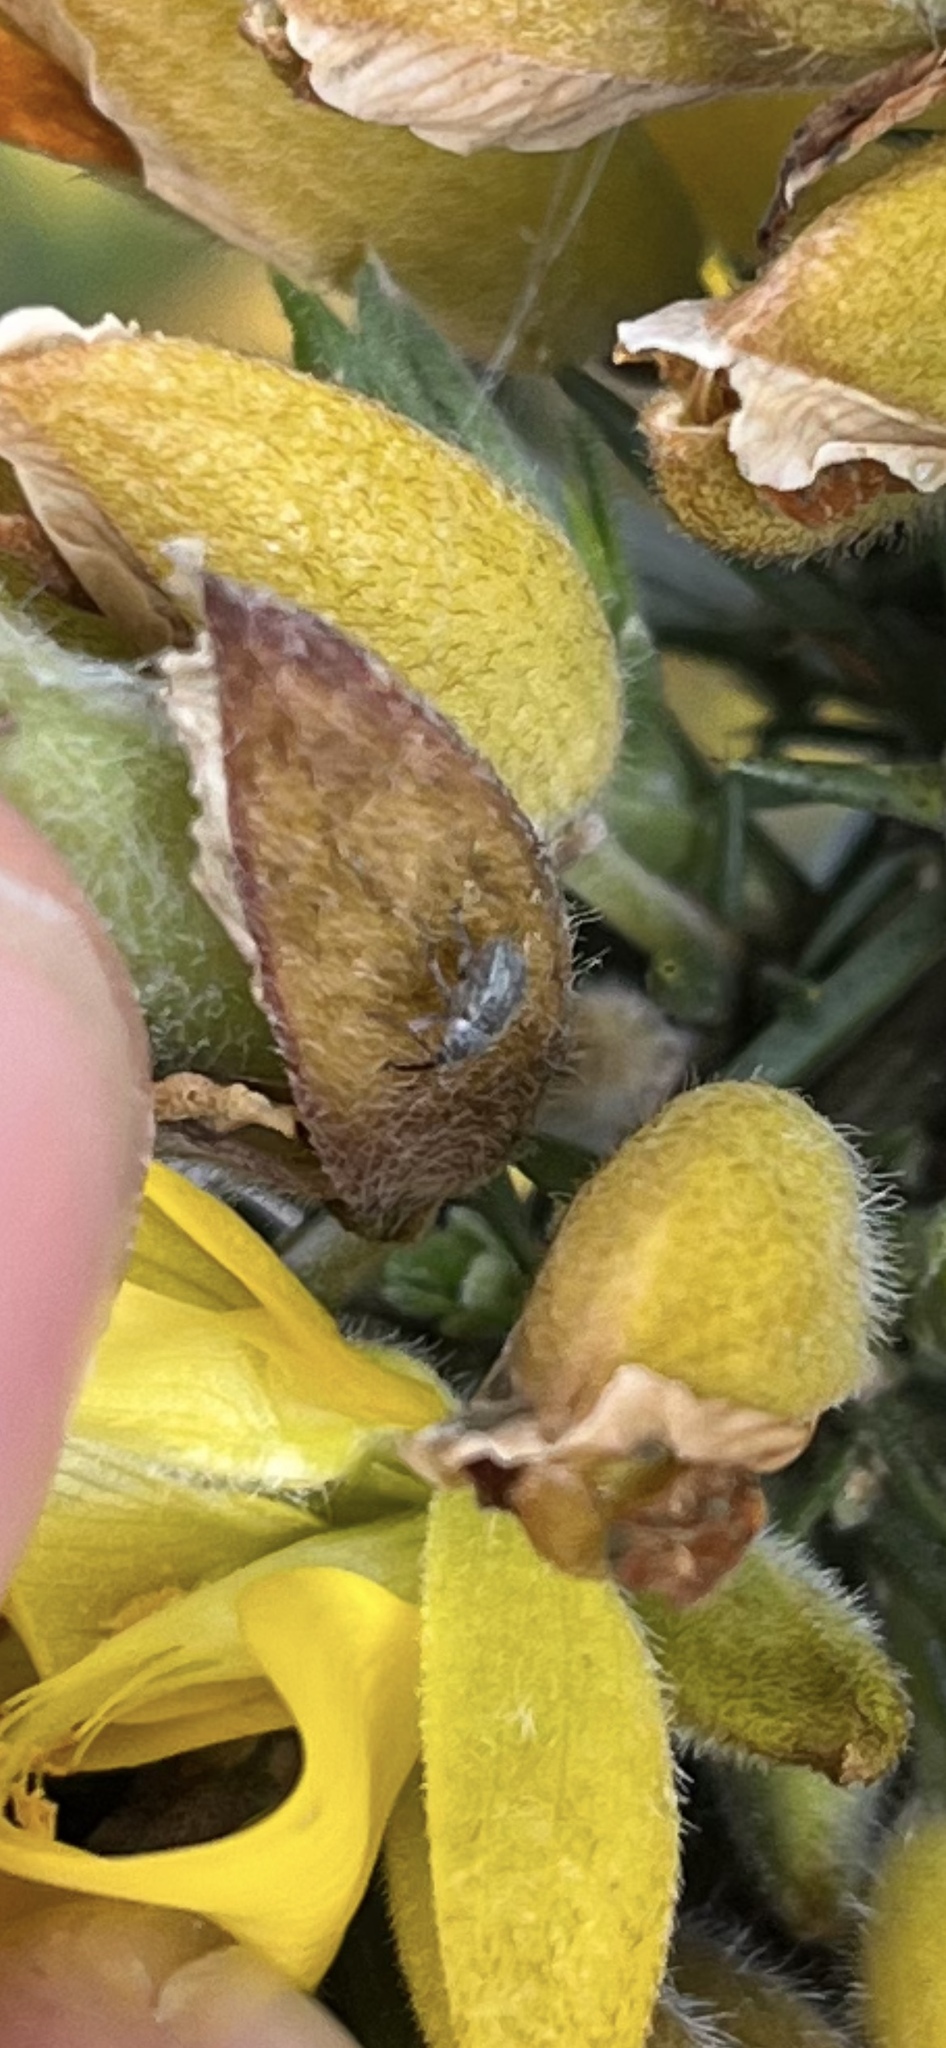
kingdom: Animalia
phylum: Arthropoda
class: Insecta
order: Coleoptera
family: Brentidae
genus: Exapion
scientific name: Exapion ulicis
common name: Gorse seed weevil
